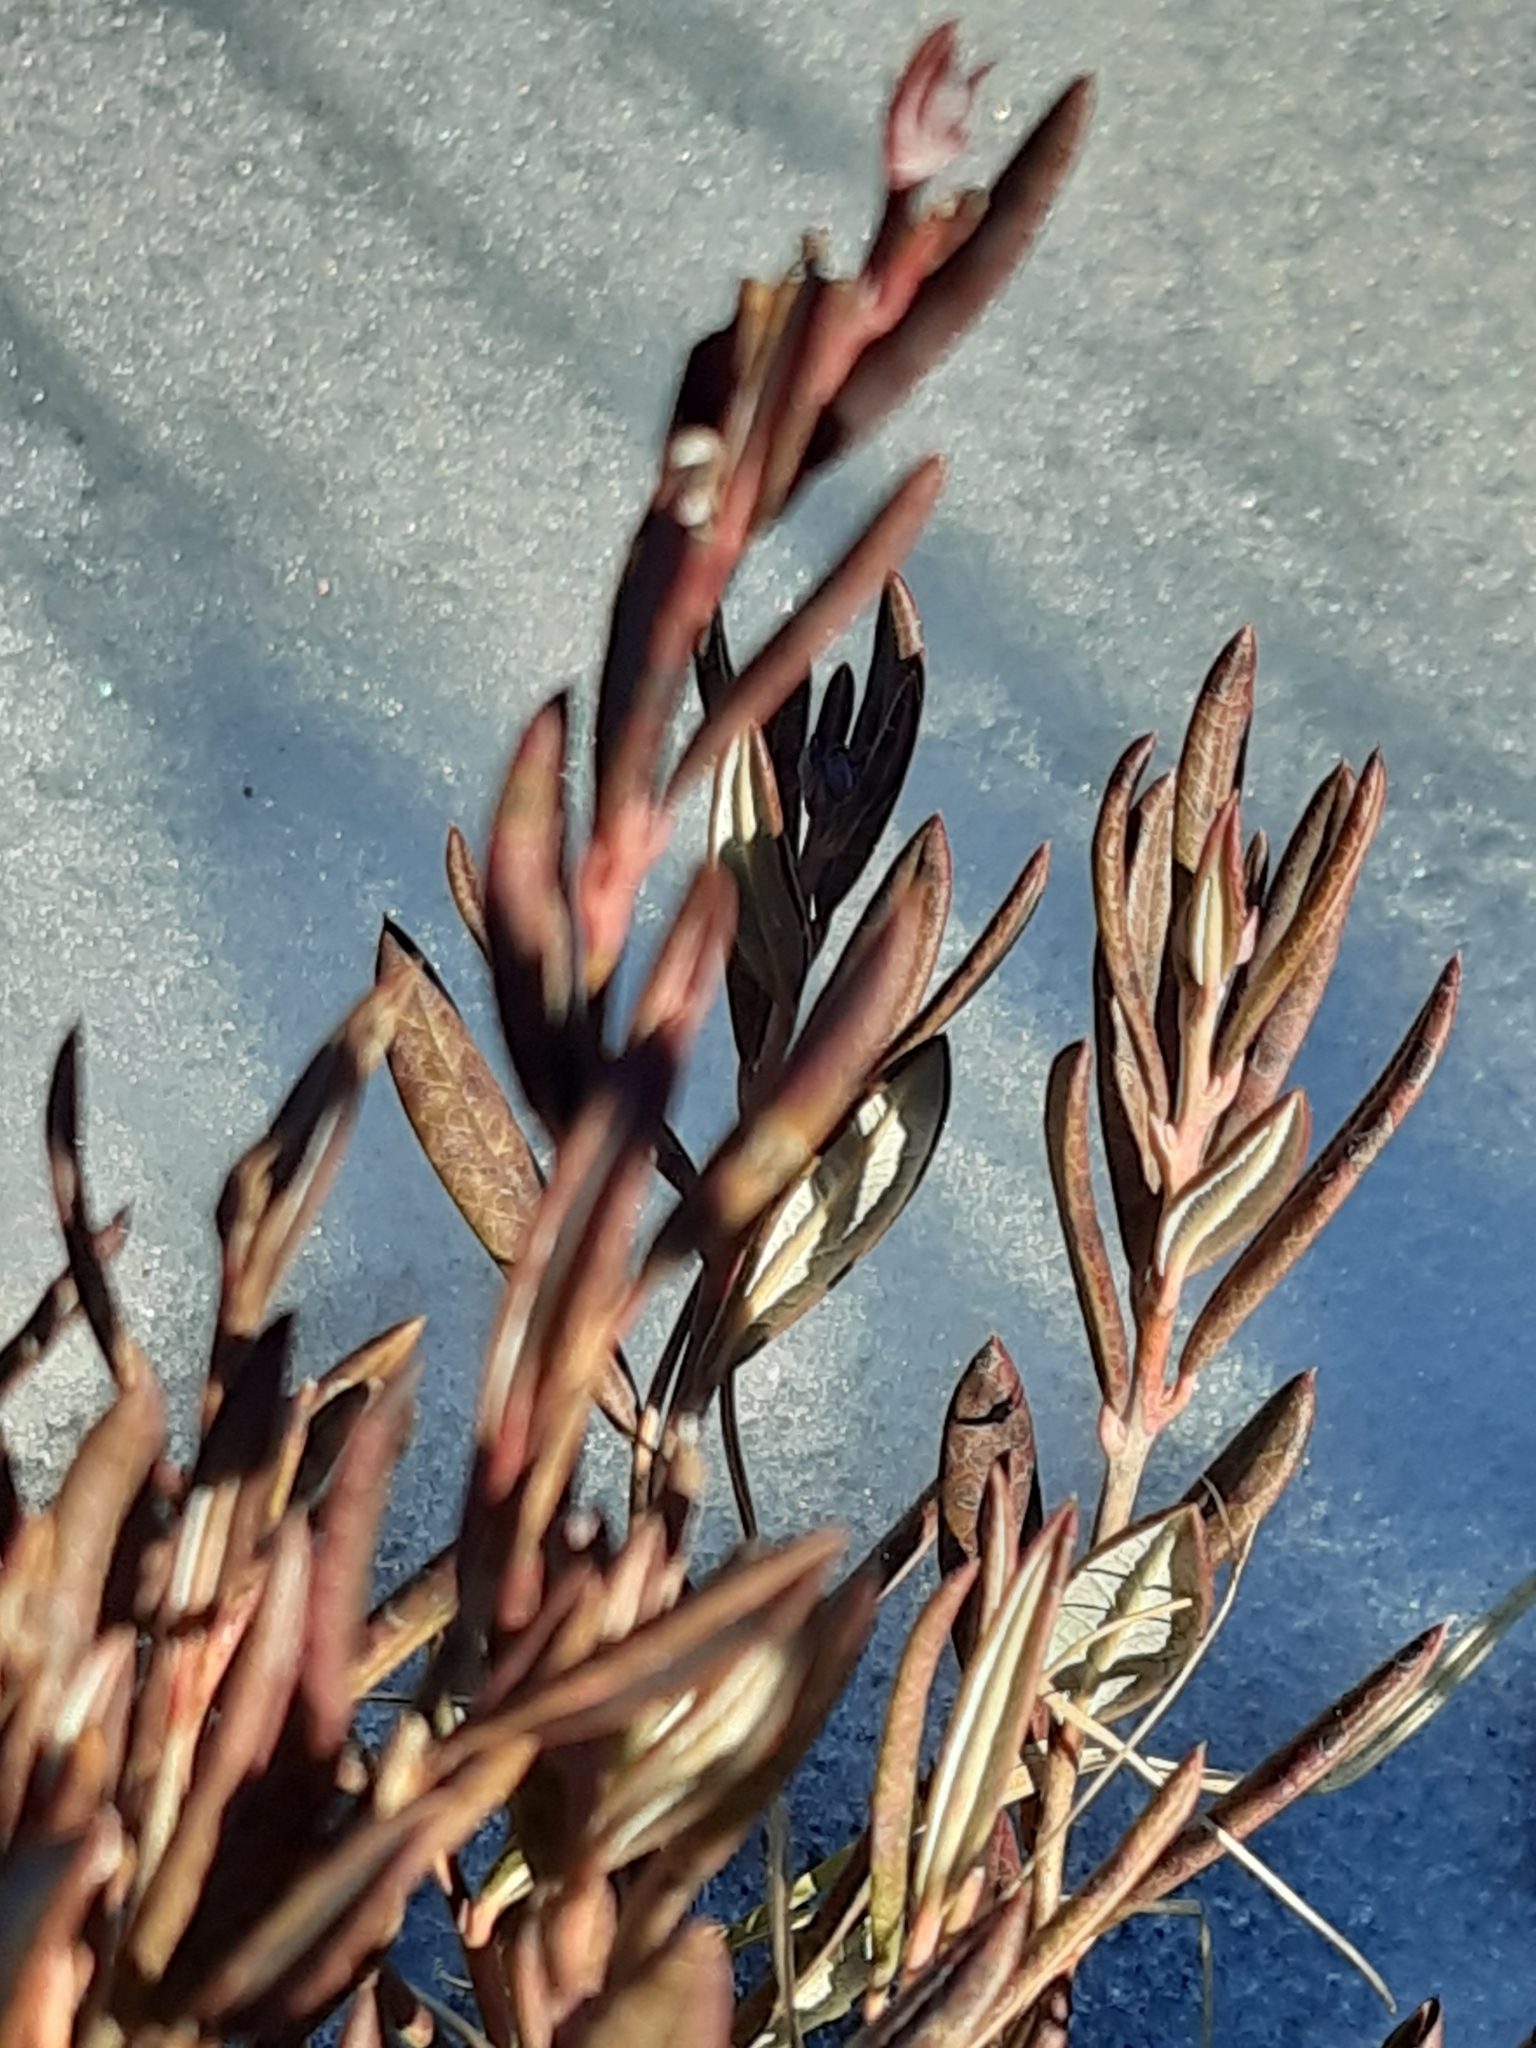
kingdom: Plantae
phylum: Tracheophyta
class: Magnoliopsida
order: Ericales
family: Ericaceae
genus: Andromeda
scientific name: Andromeda polifolia
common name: Bog-rosemary
